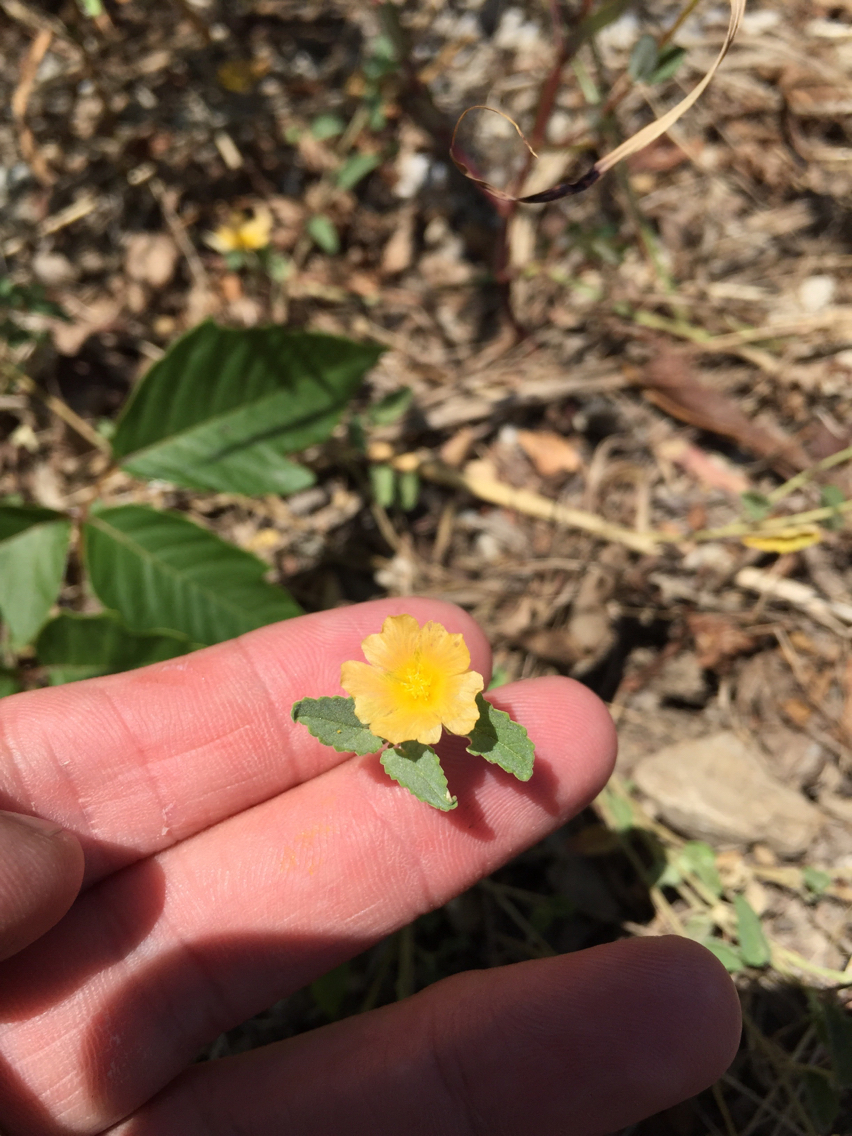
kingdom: Plantae
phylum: Tracheophyta
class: Magnoliopsida
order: Malvales
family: Malvaceae
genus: Sida
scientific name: Sida abutilifolia
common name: Spreading fanpetals
